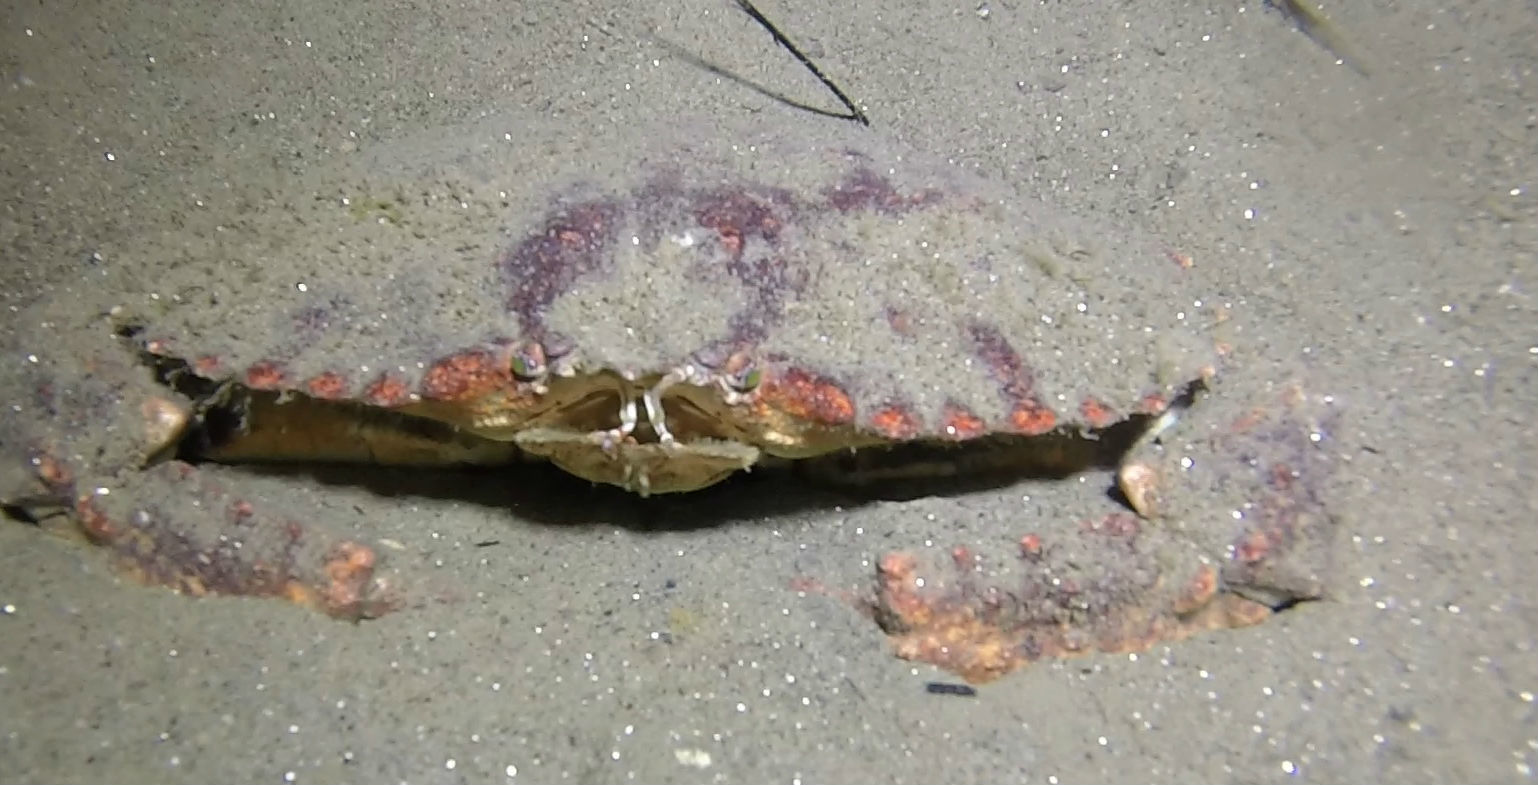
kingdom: Animalia
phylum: Arthropoda
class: Malacostraca
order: Decapoda
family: Cancridae
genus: Cancer
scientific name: Cancer productus
